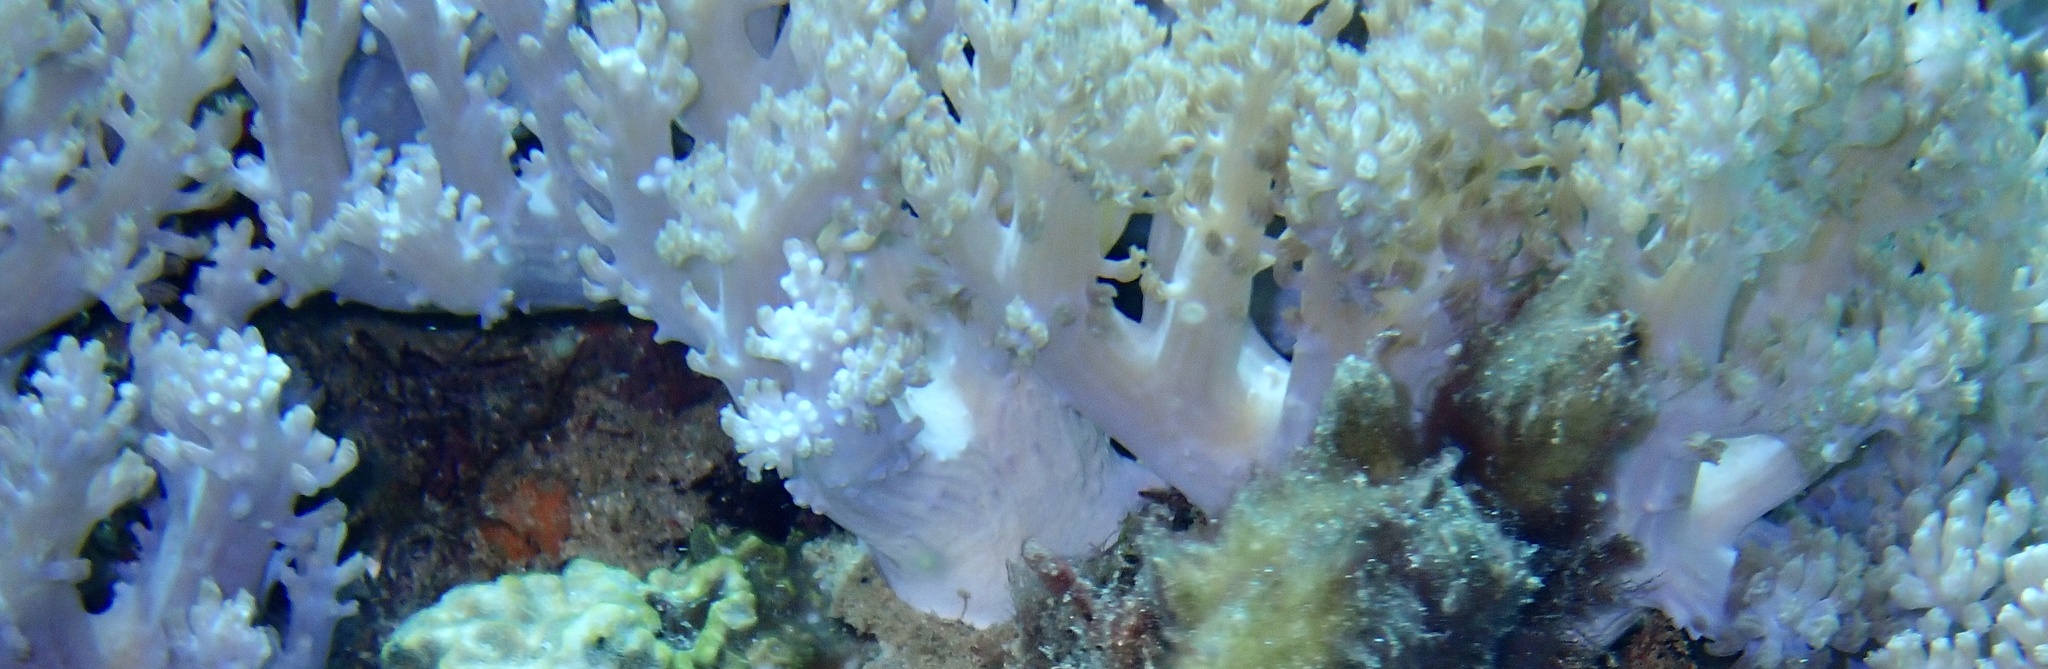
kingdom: Animalia
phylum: Cnidaria
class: Anthozoa
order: Malacalcyonacea
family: Xeniidae
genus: Conglomeratusclera
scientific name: Conglomeratusclera coerulea
